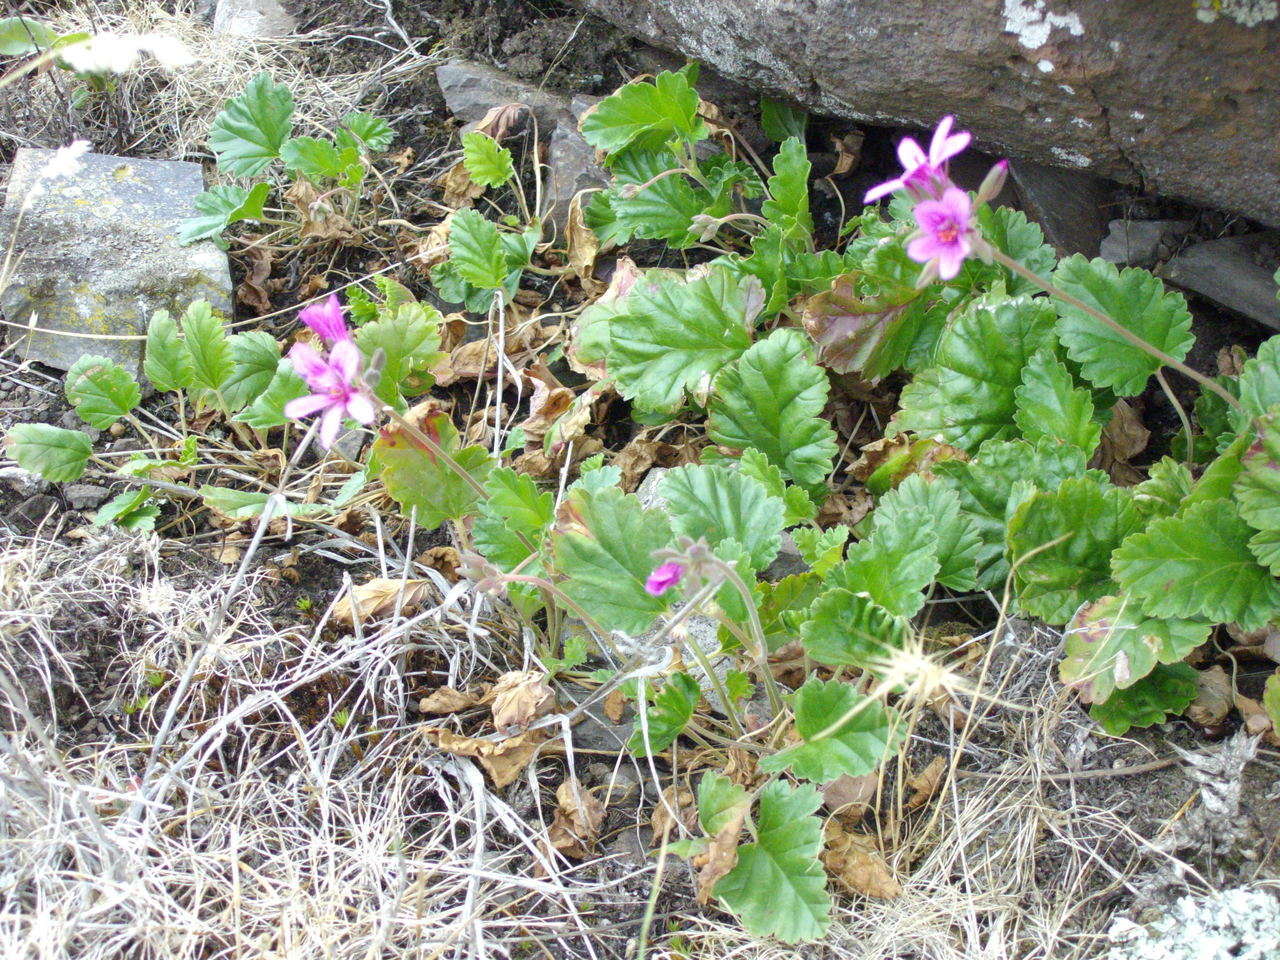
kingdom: Plantae
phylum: Tracheophyta
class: Magnoliopsida
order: Geraniales
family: Geraniaceae
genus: Pelargonium
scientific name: Pelargonium rodneyanum
